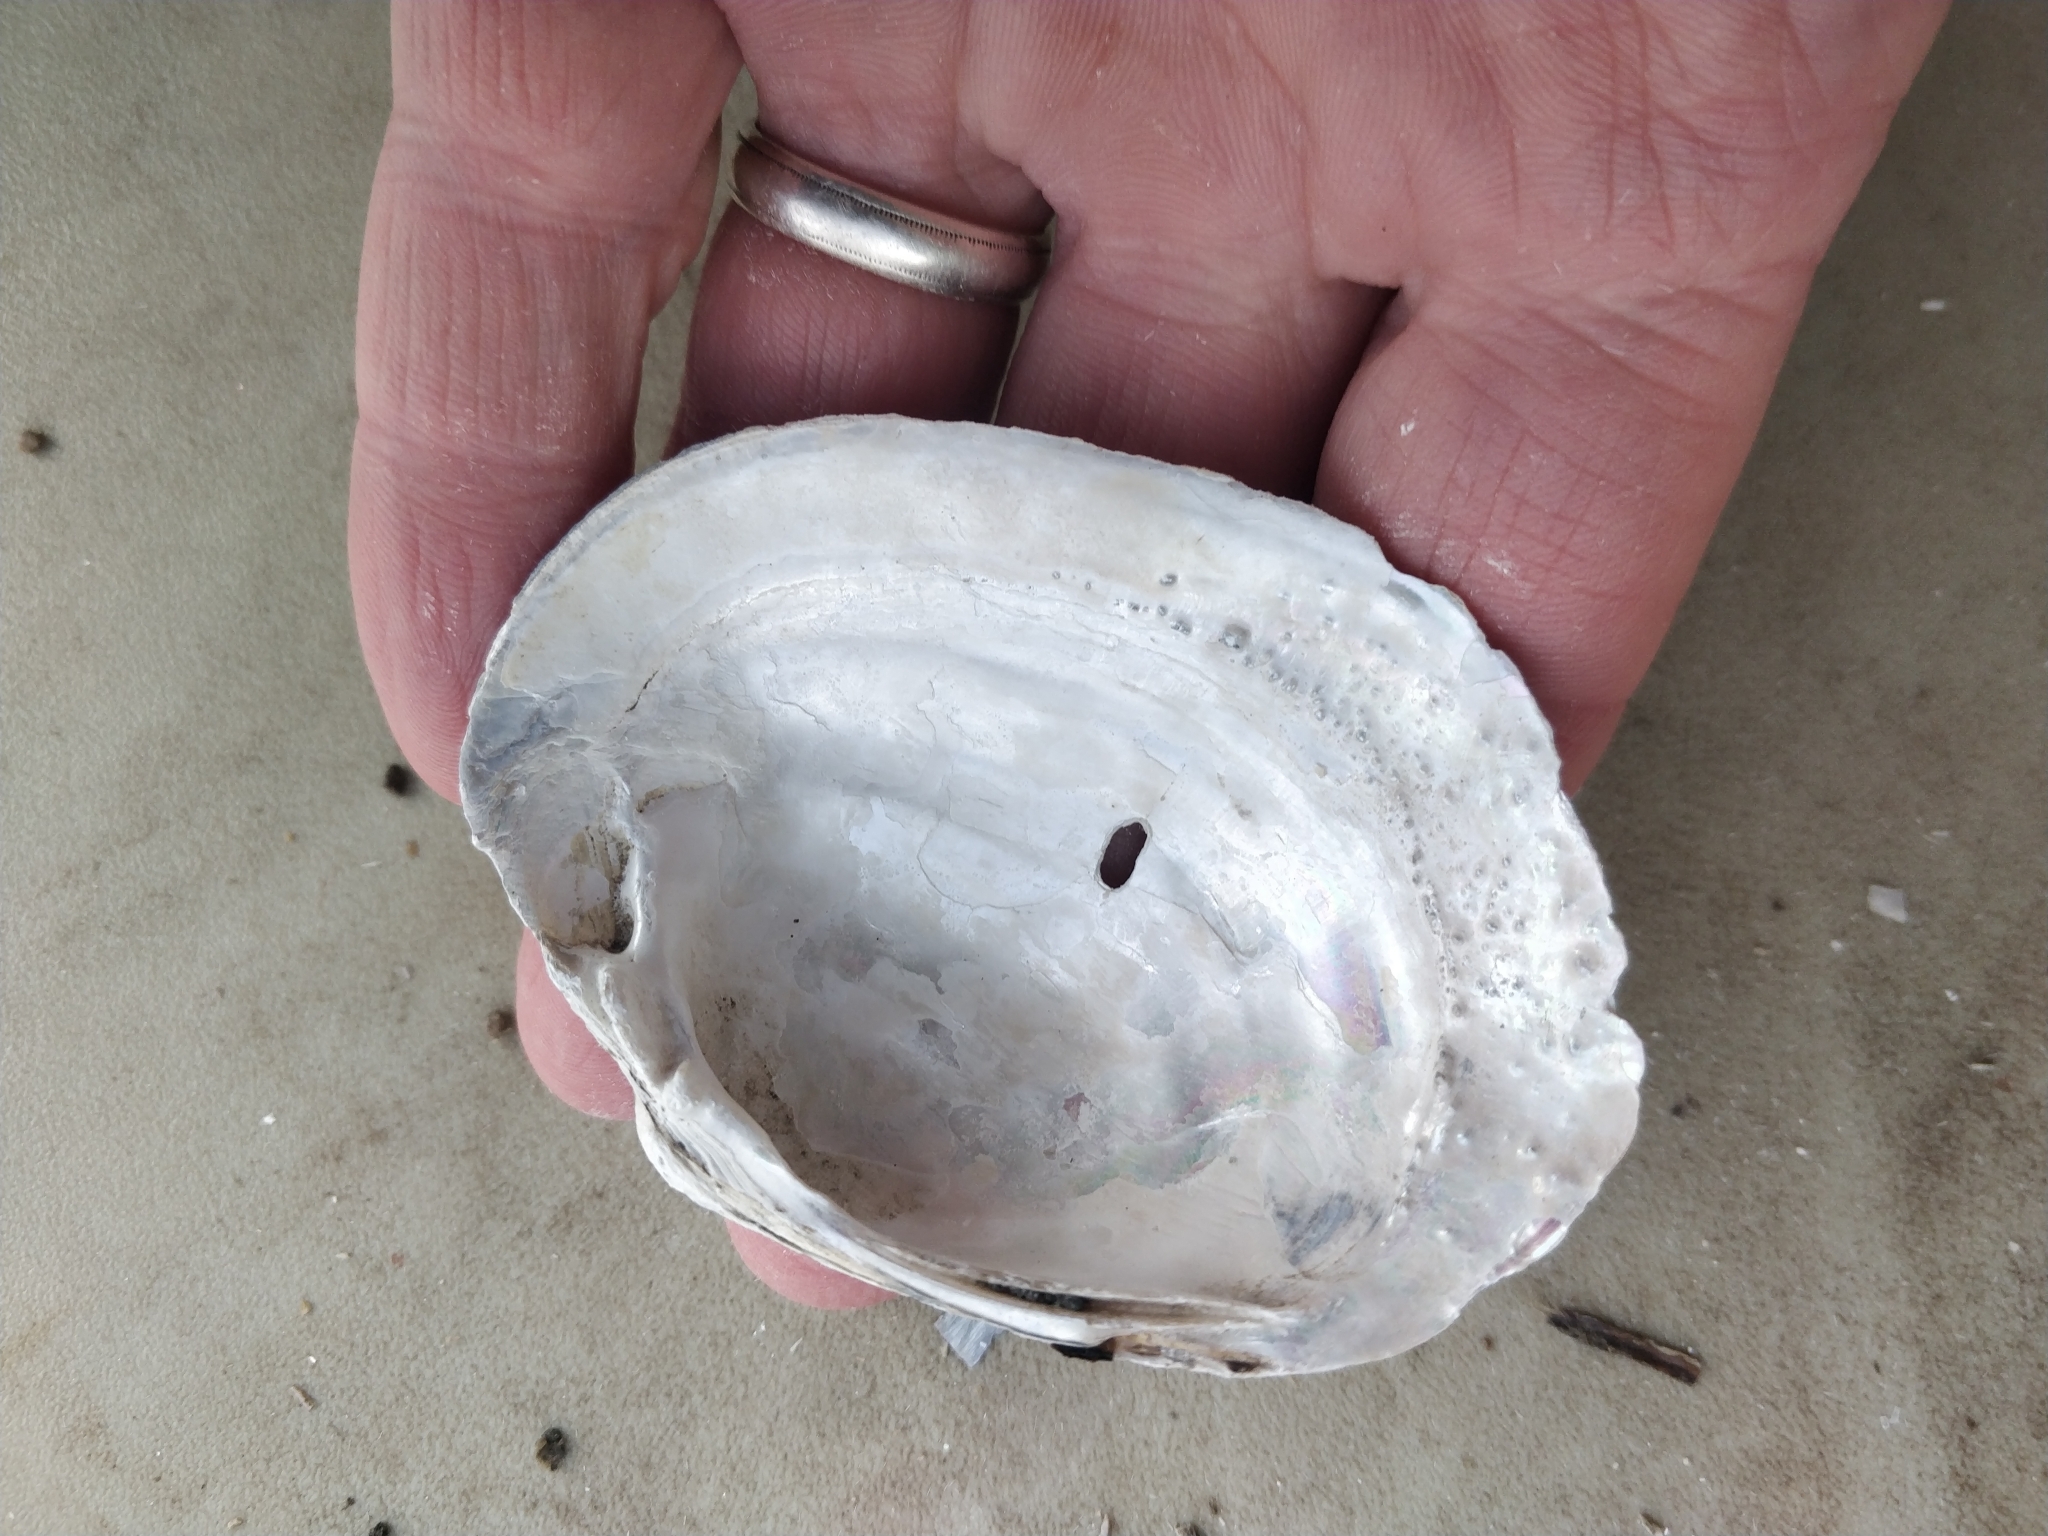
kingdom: Animalia
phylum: Mollusca
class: Bivalvia
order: Unionida
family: Unionidae
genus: Lampsilis
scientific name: Lampsilis cardium
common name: Plain pocketbook
